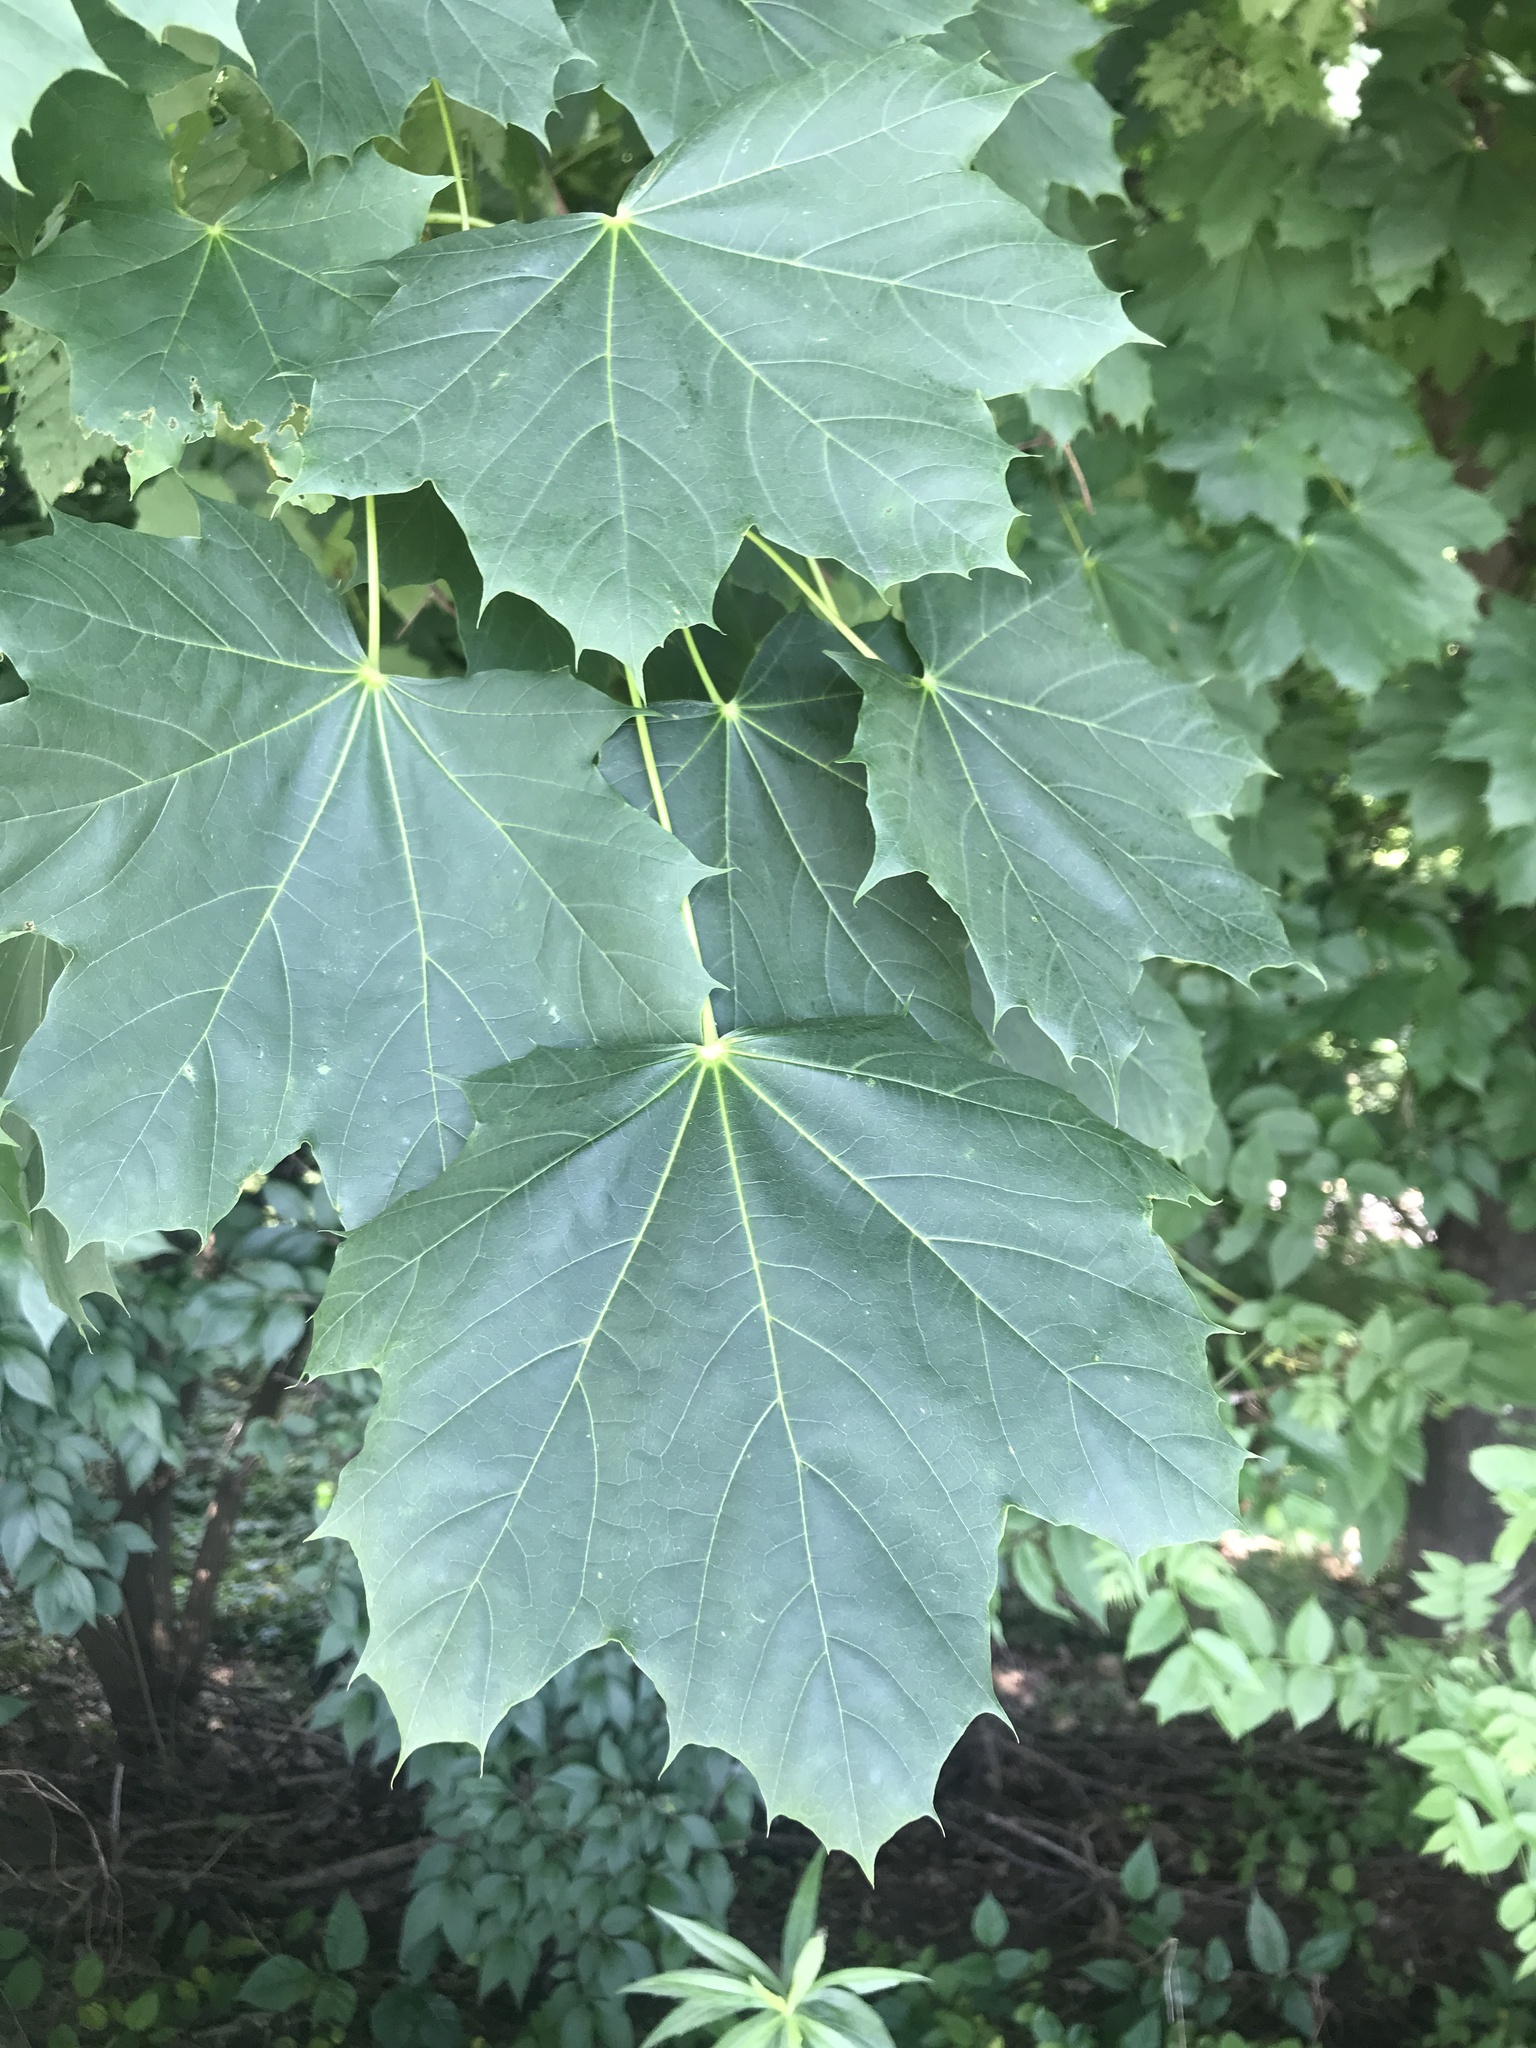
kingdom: Plantae
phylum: Tracheophyta
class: Magnoliopsida
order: Sapindales
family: Sapindaceae
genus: Acer
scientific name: Acer platanoides
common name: Norway maple
